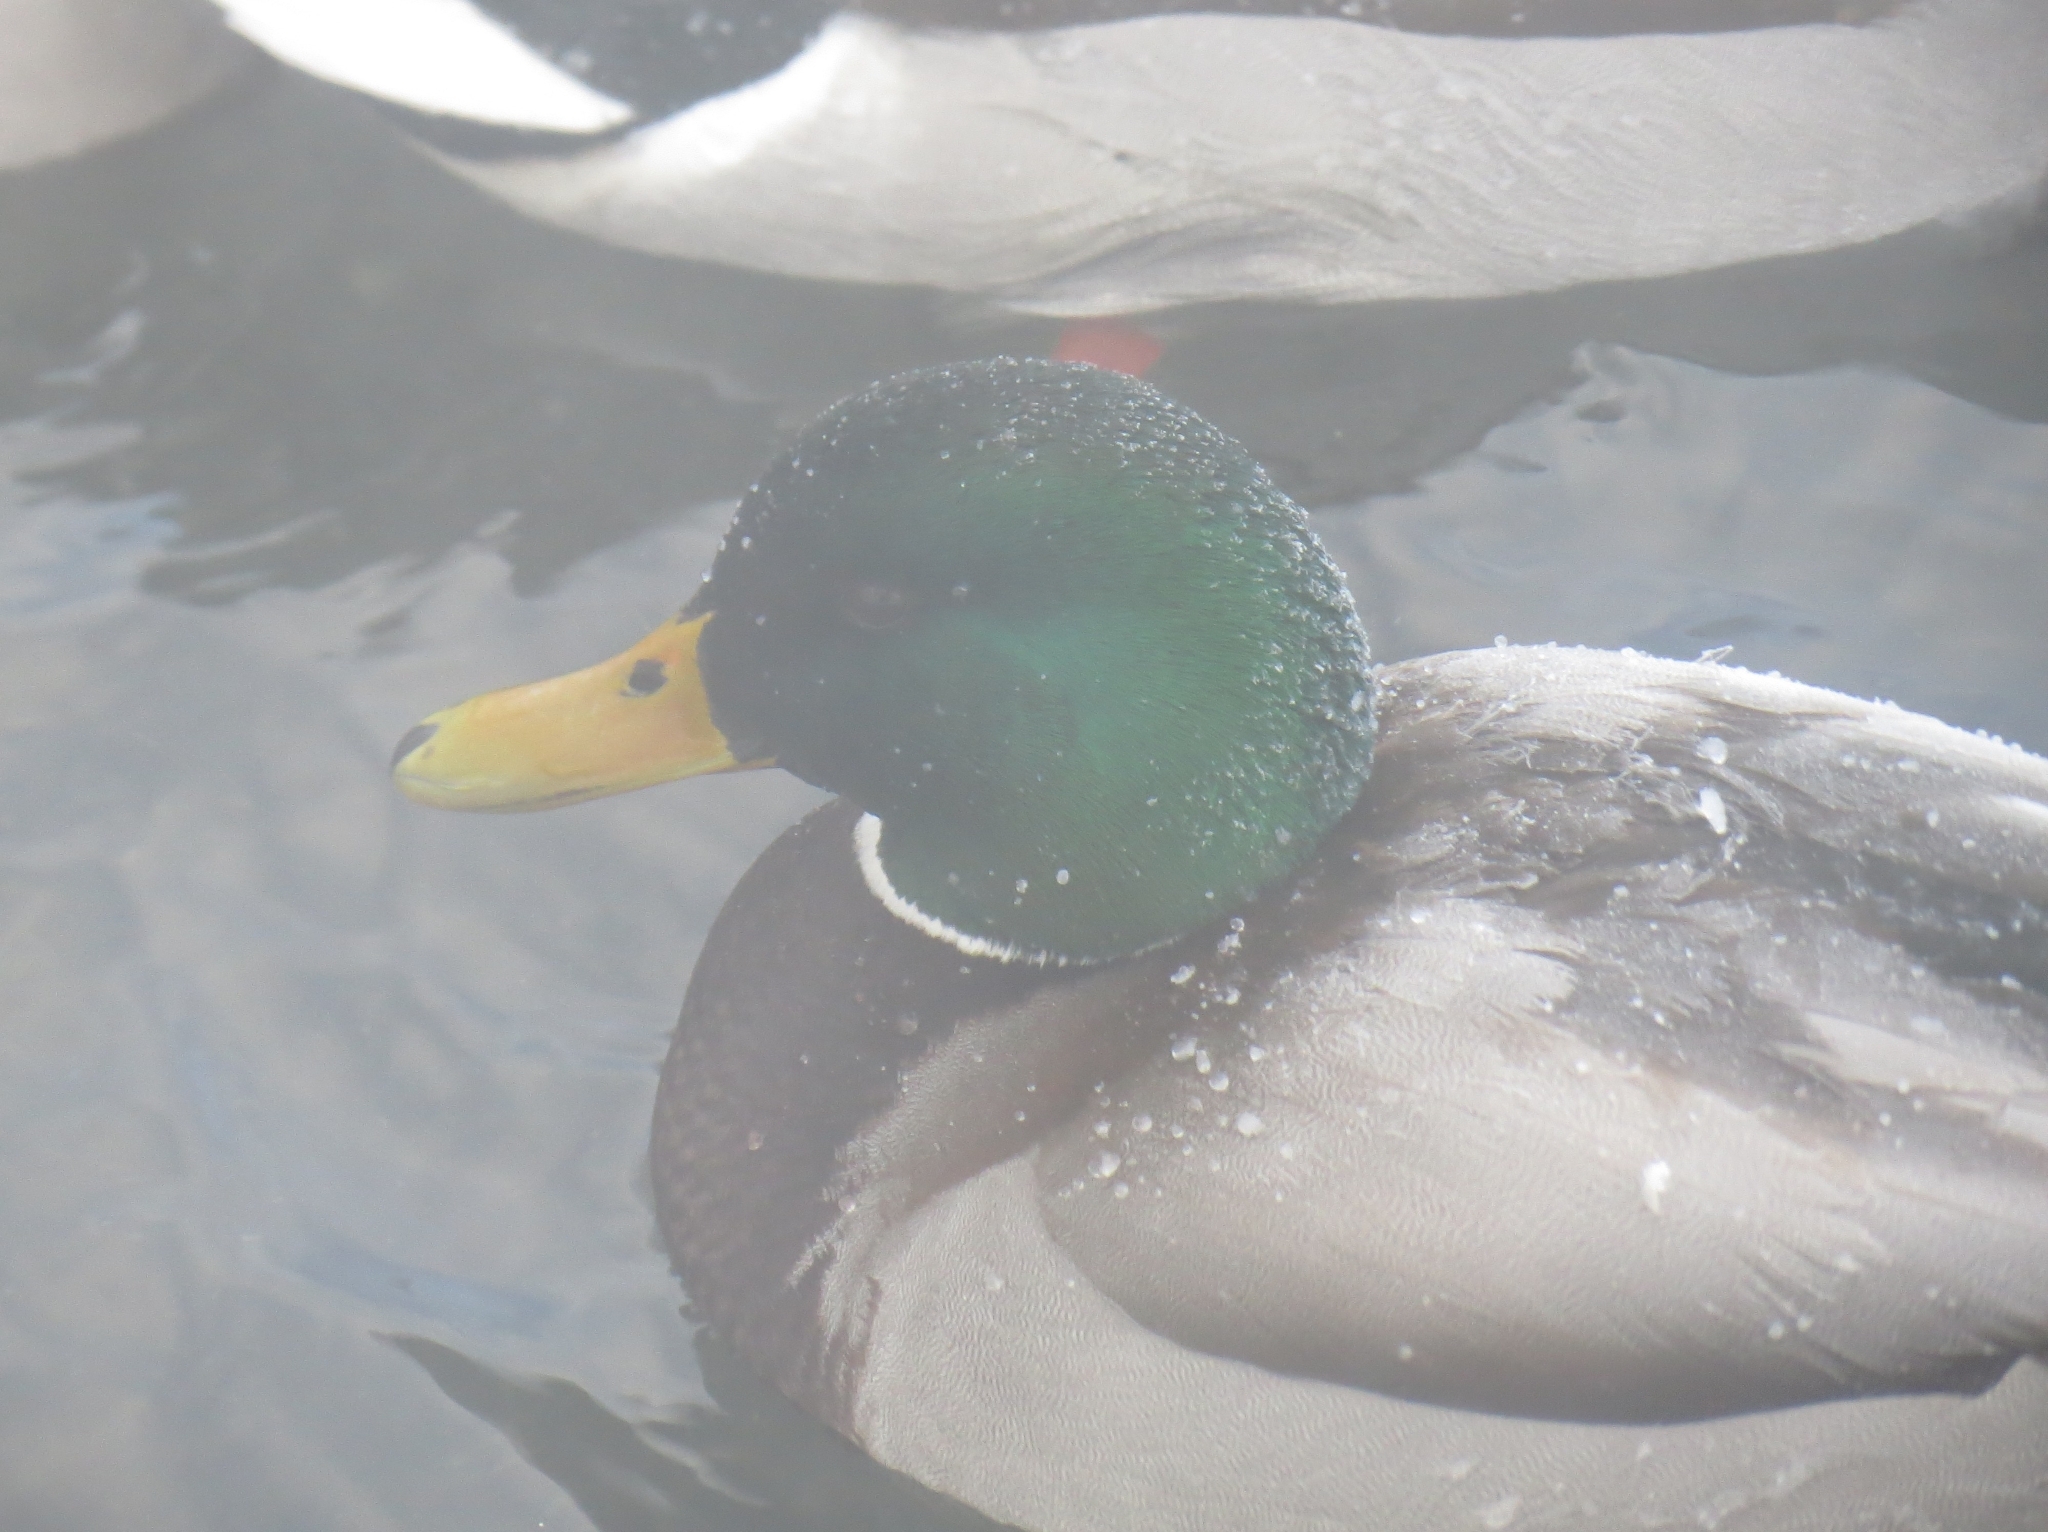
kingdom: Animalia
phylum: Chordata
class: Aves
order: Anseriformes
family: Anatidae
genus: Anas
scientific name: Anas platyrhynchos
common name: Mallard
